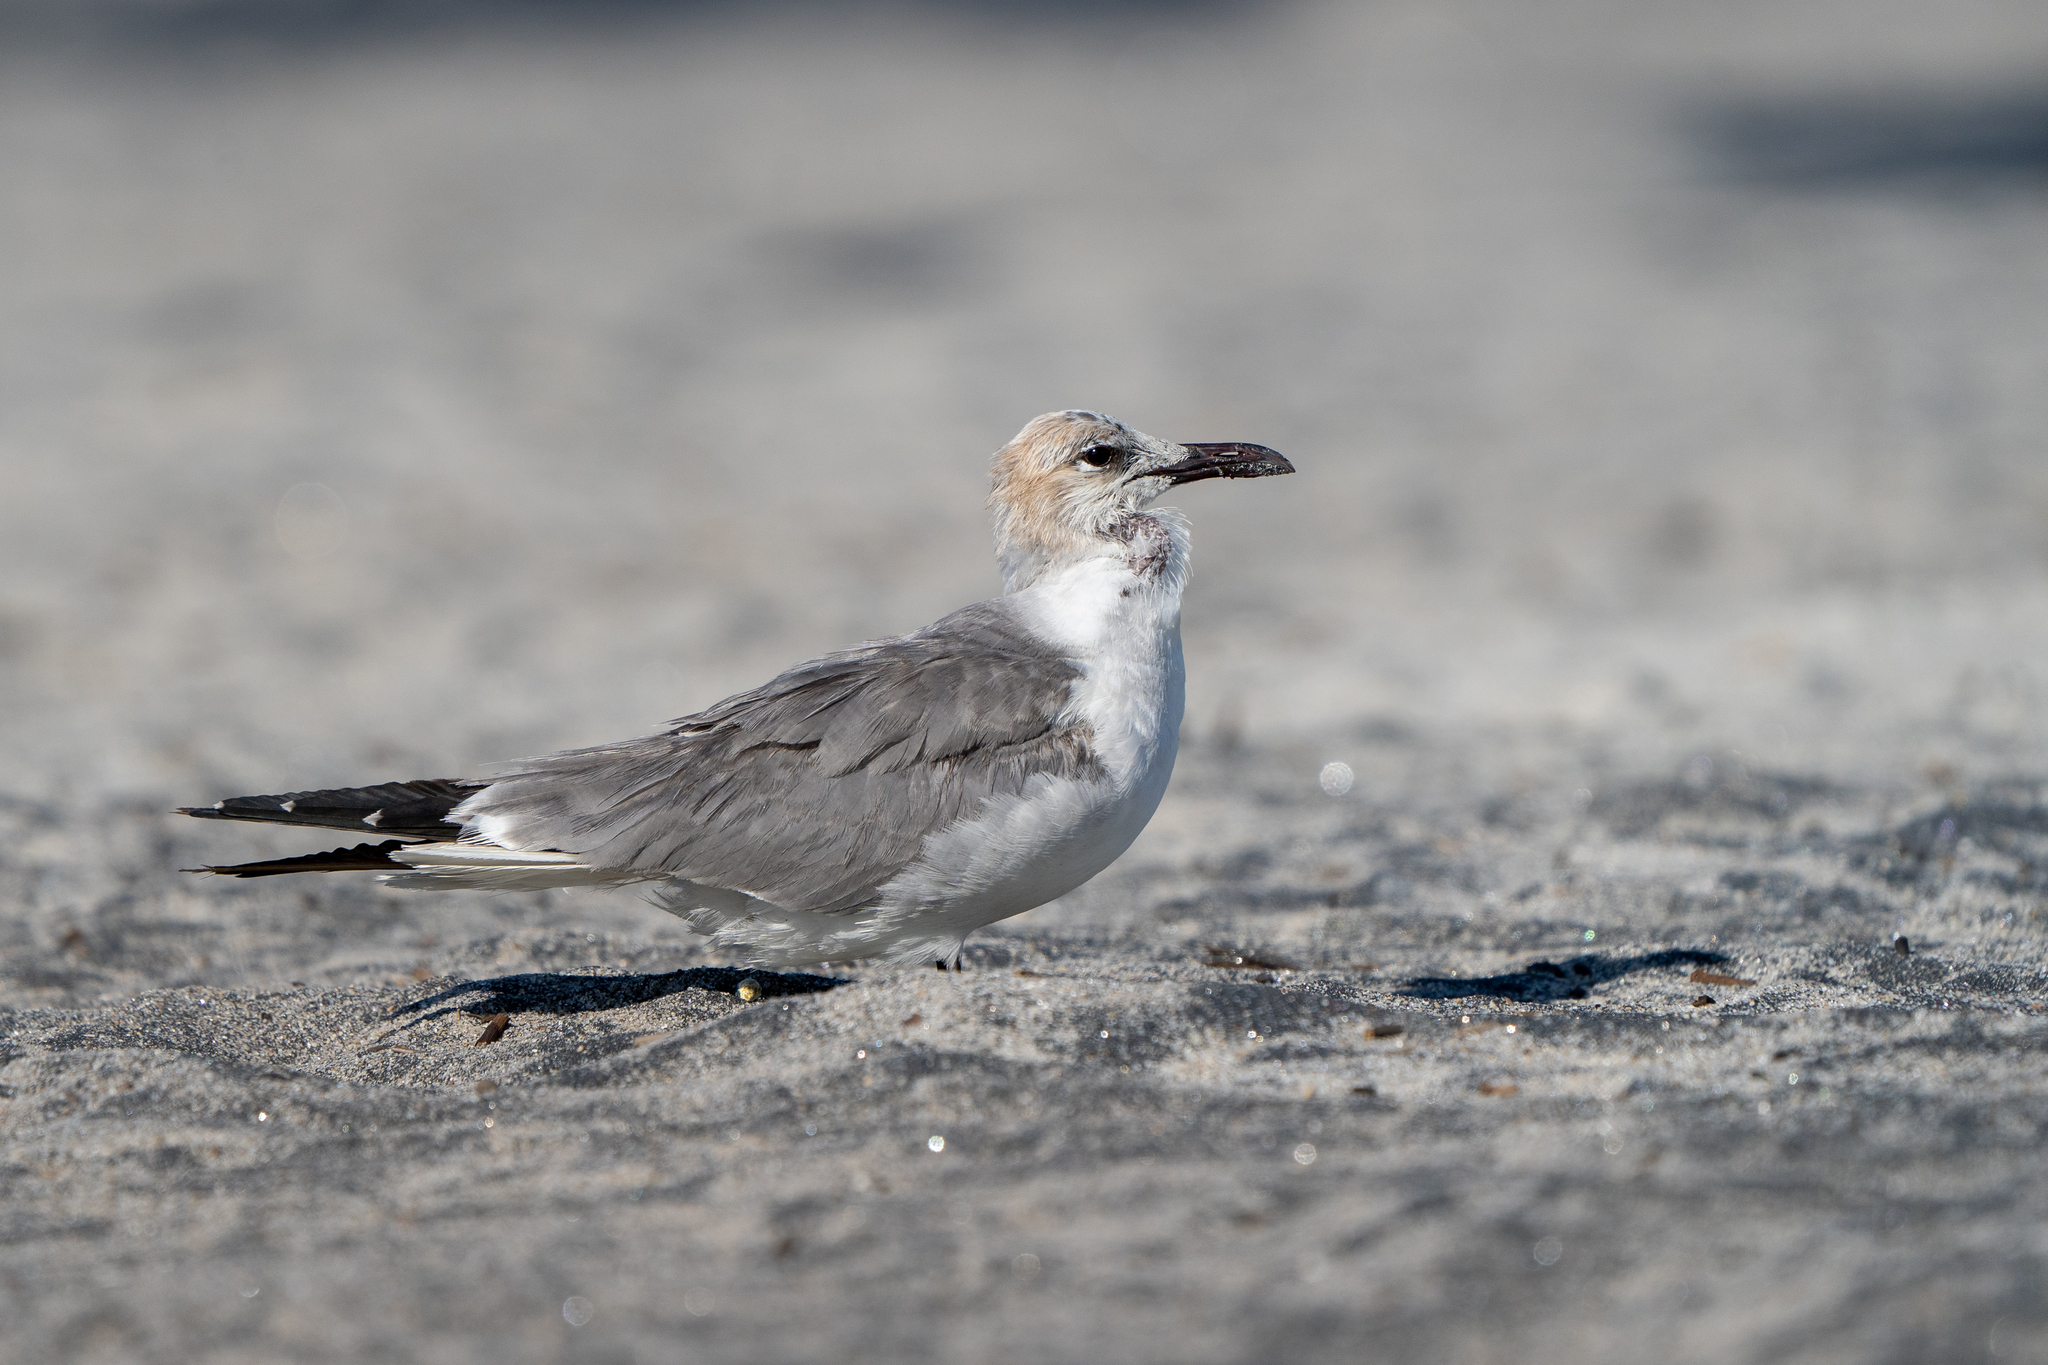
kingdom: Animalia
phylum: Chordata
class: Aves
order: Charadriiformes
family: Laridae
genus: Leucophaeus
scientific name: Leucophaeus atricilla
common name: Laughing gull
